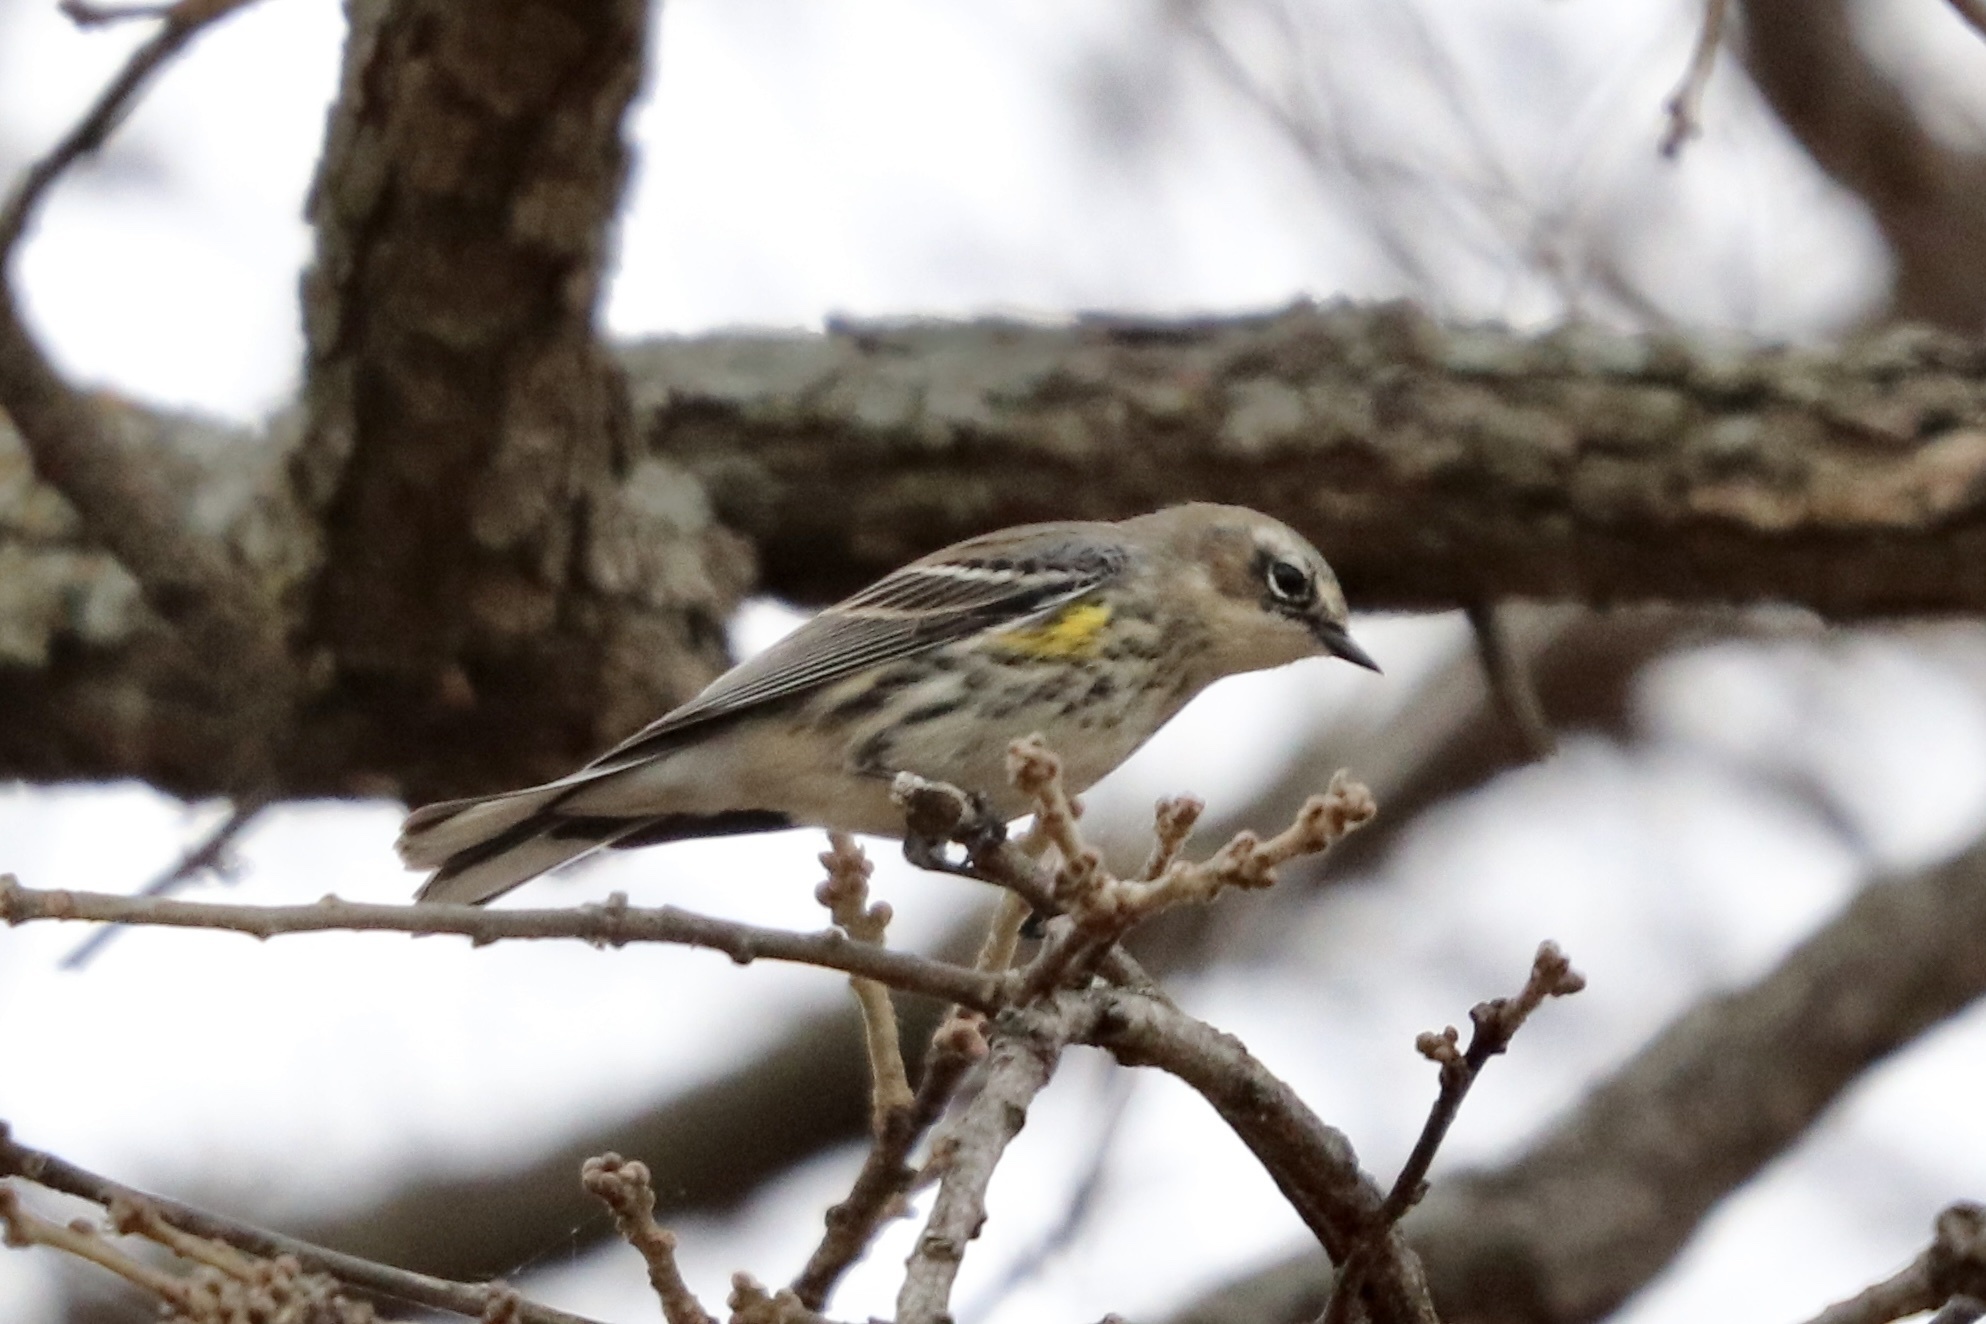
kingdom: Animalia
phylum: Chordata
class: Aves
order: Passeriformes
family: Parulidae
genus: Setophaga
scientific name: Setophaga coronata
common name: Myrtle warbler
